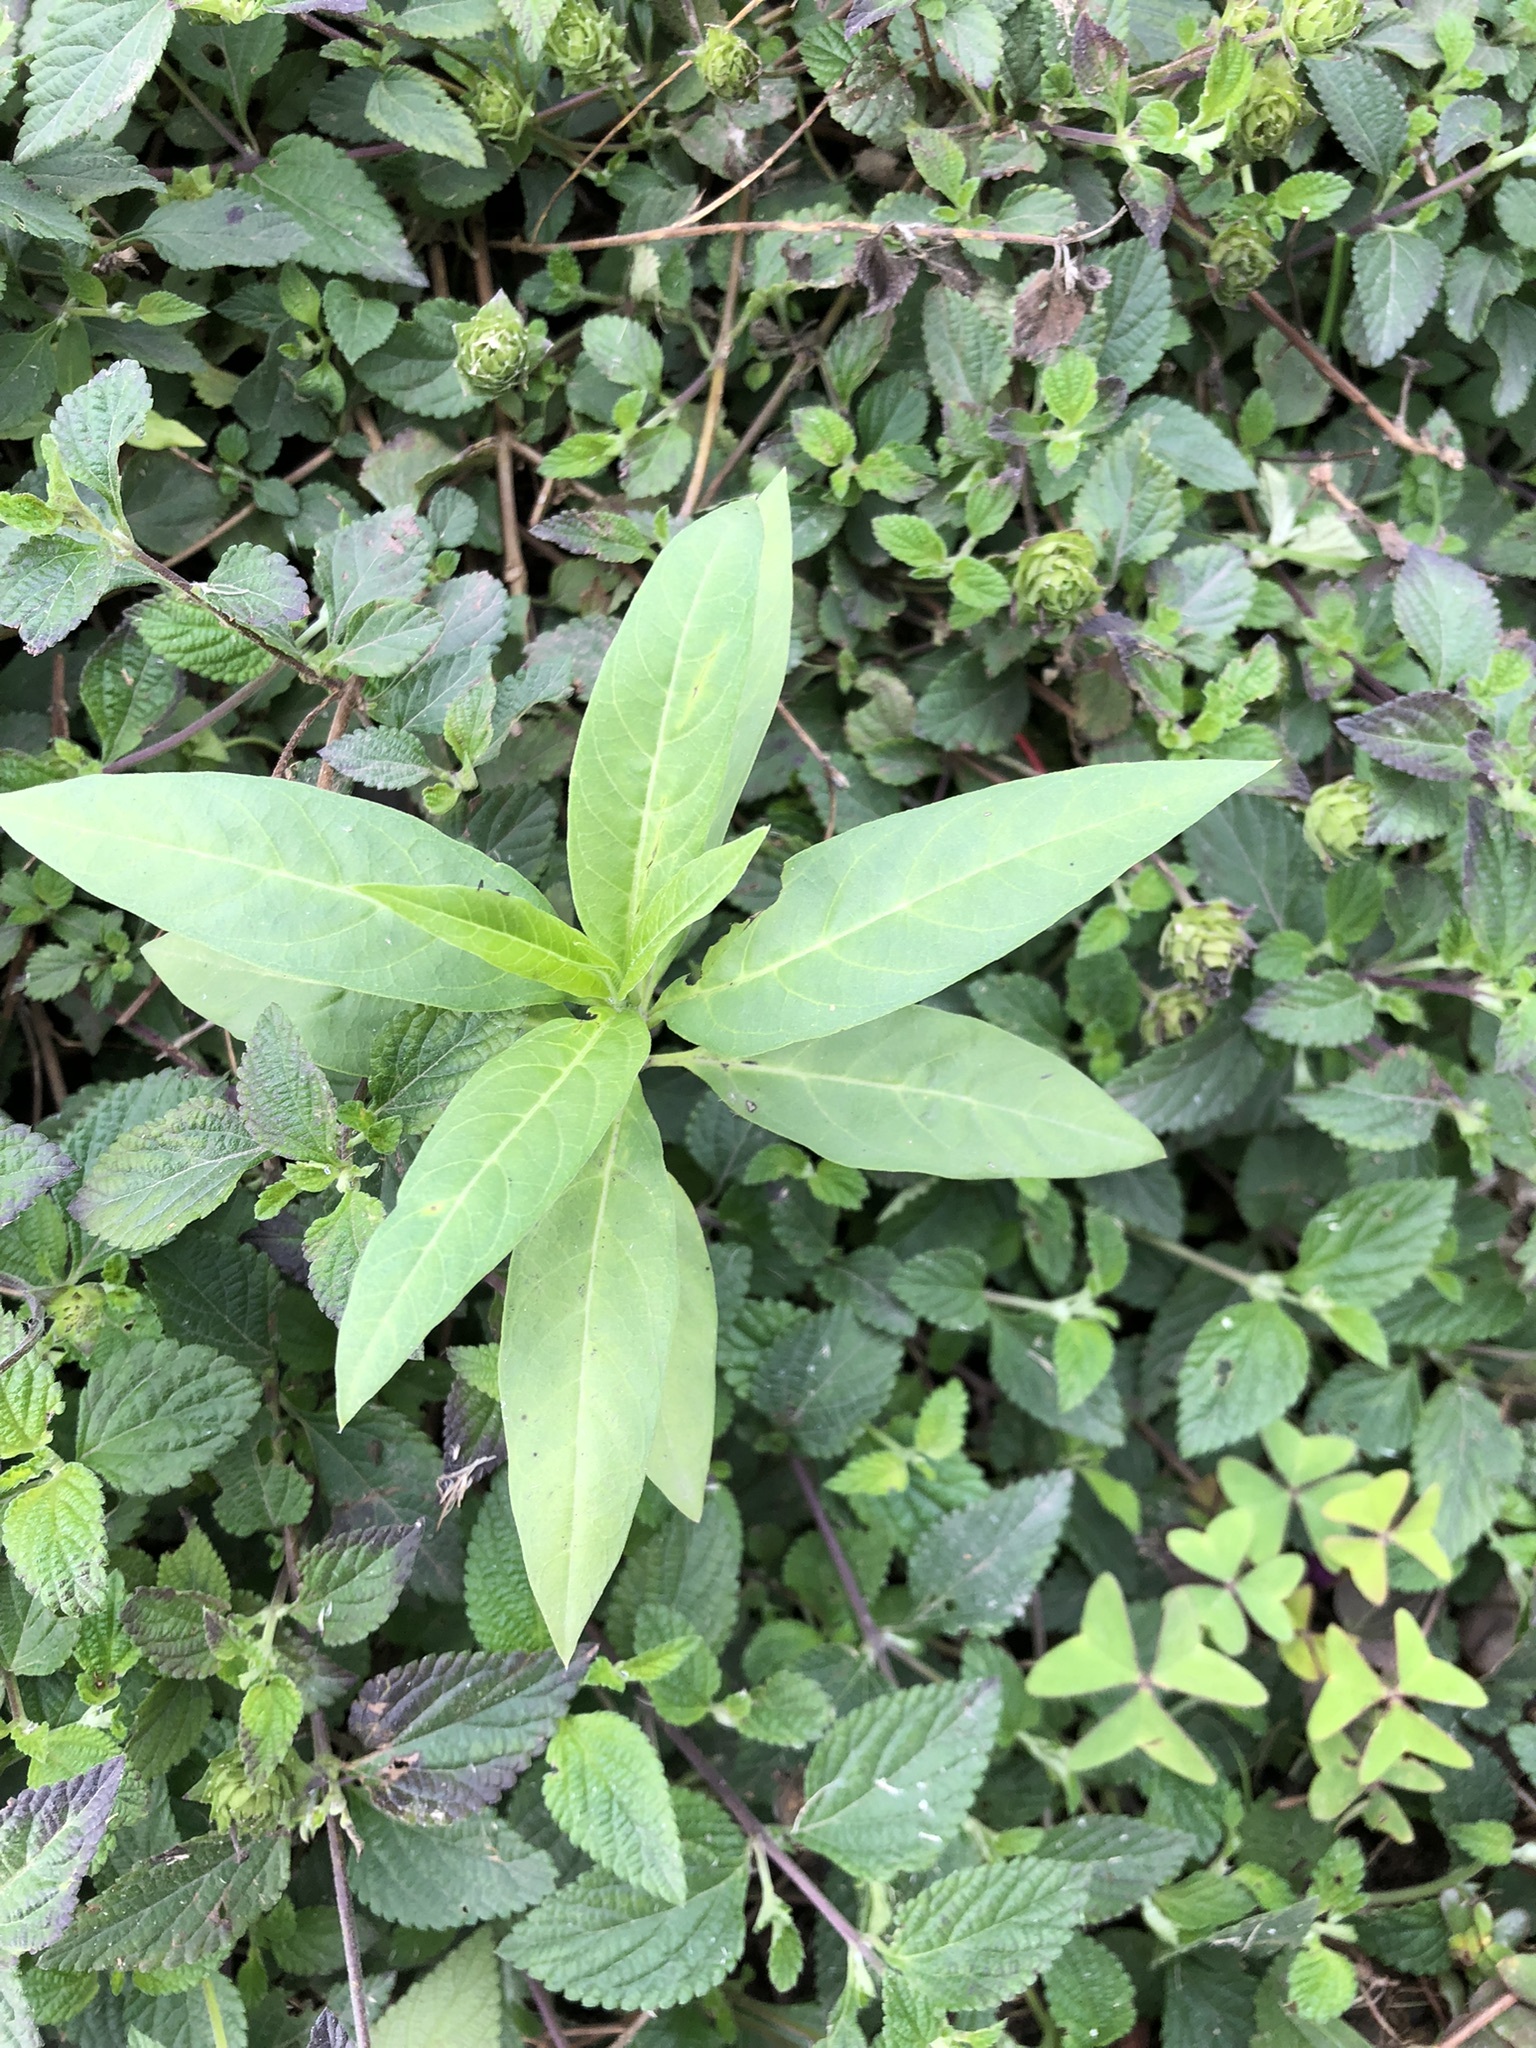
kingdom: Plantae
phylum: Tracheophyta
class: Magnoliopsida
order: Gentianales
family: Apocynaceae
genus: Asclepias
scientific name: Asclepias curassavica
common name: Bloodflower
